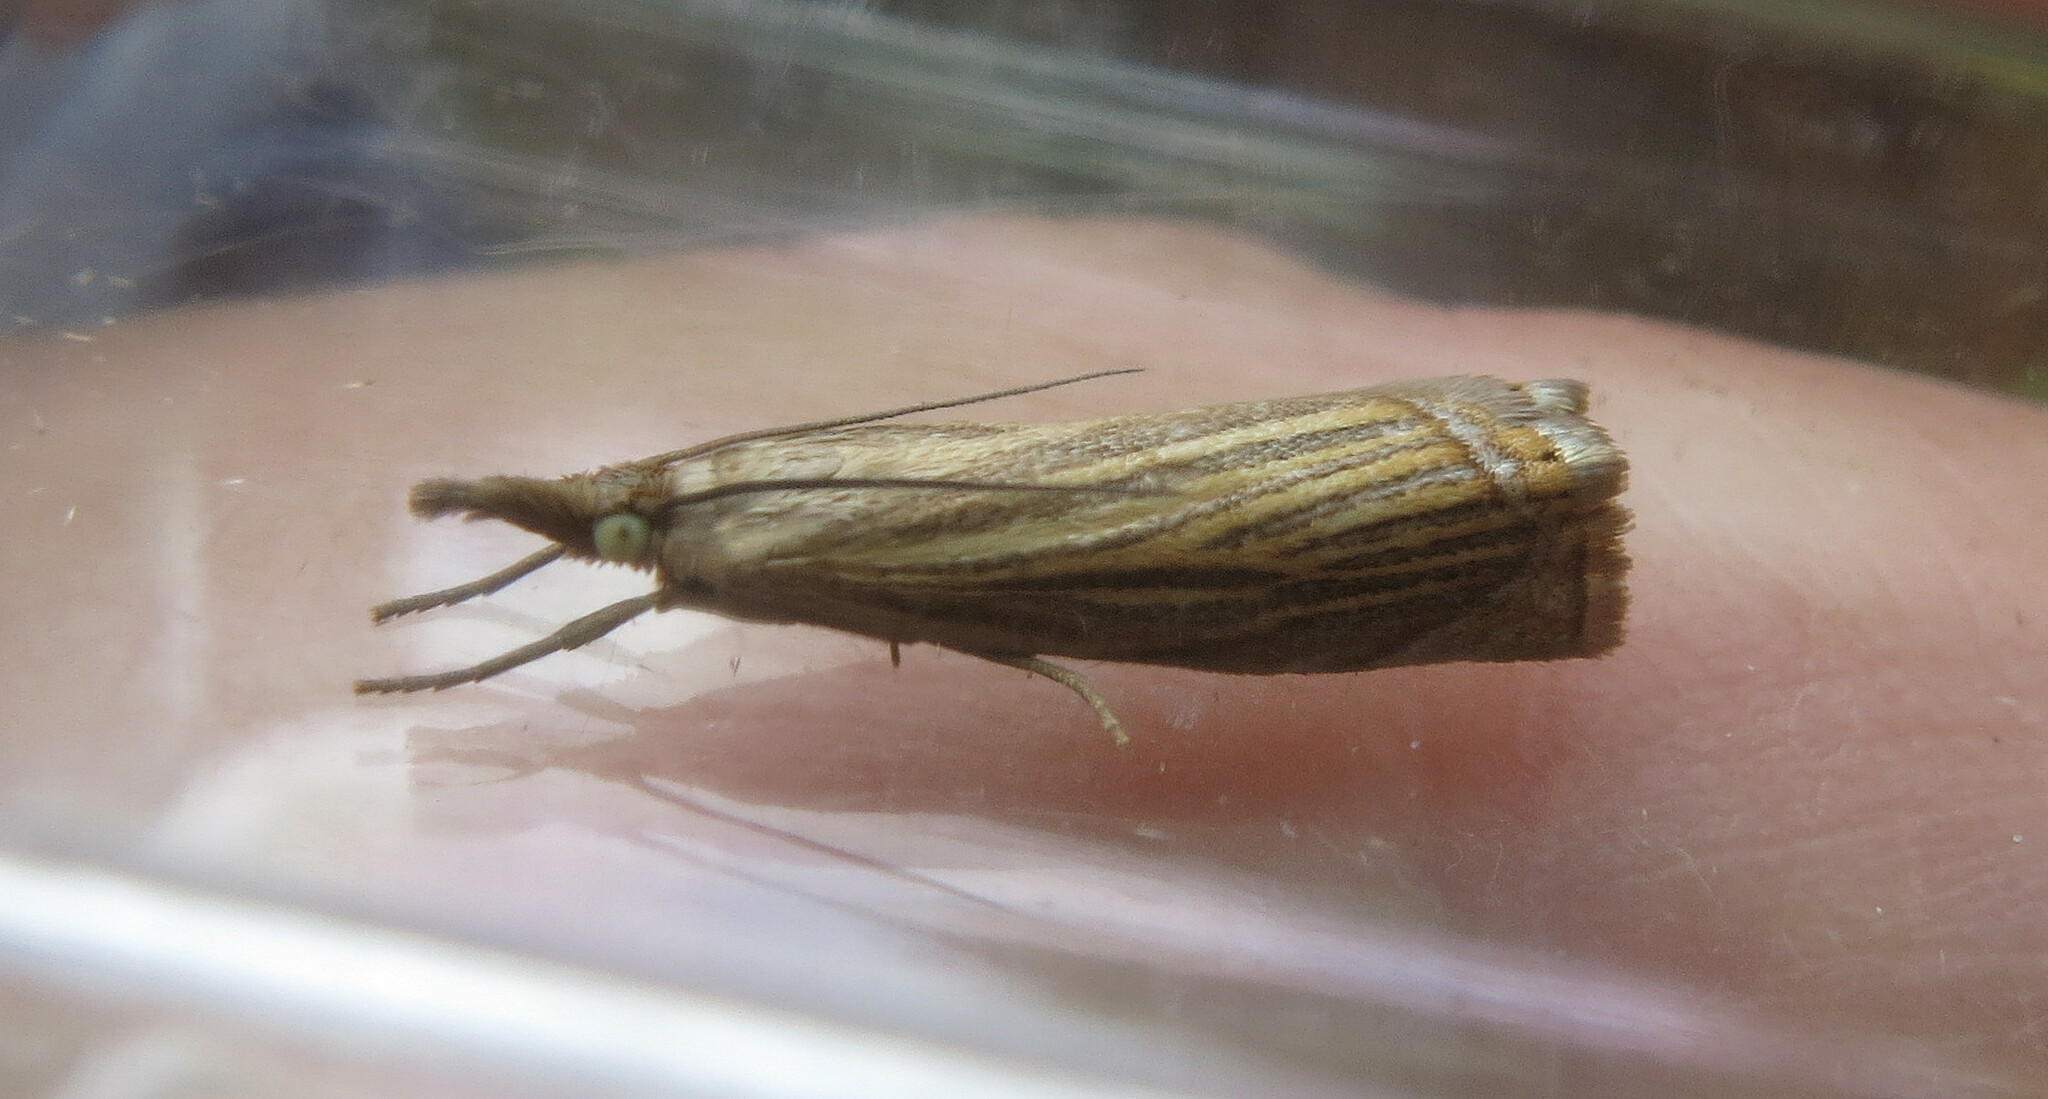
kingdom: Animalia
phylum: Arthropoda
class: Insecta
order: Lepidoptera
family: Crambidae
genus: Chrysoteuchia
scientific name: Chrysoteuchia culmella
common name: Garden grass-veneer
